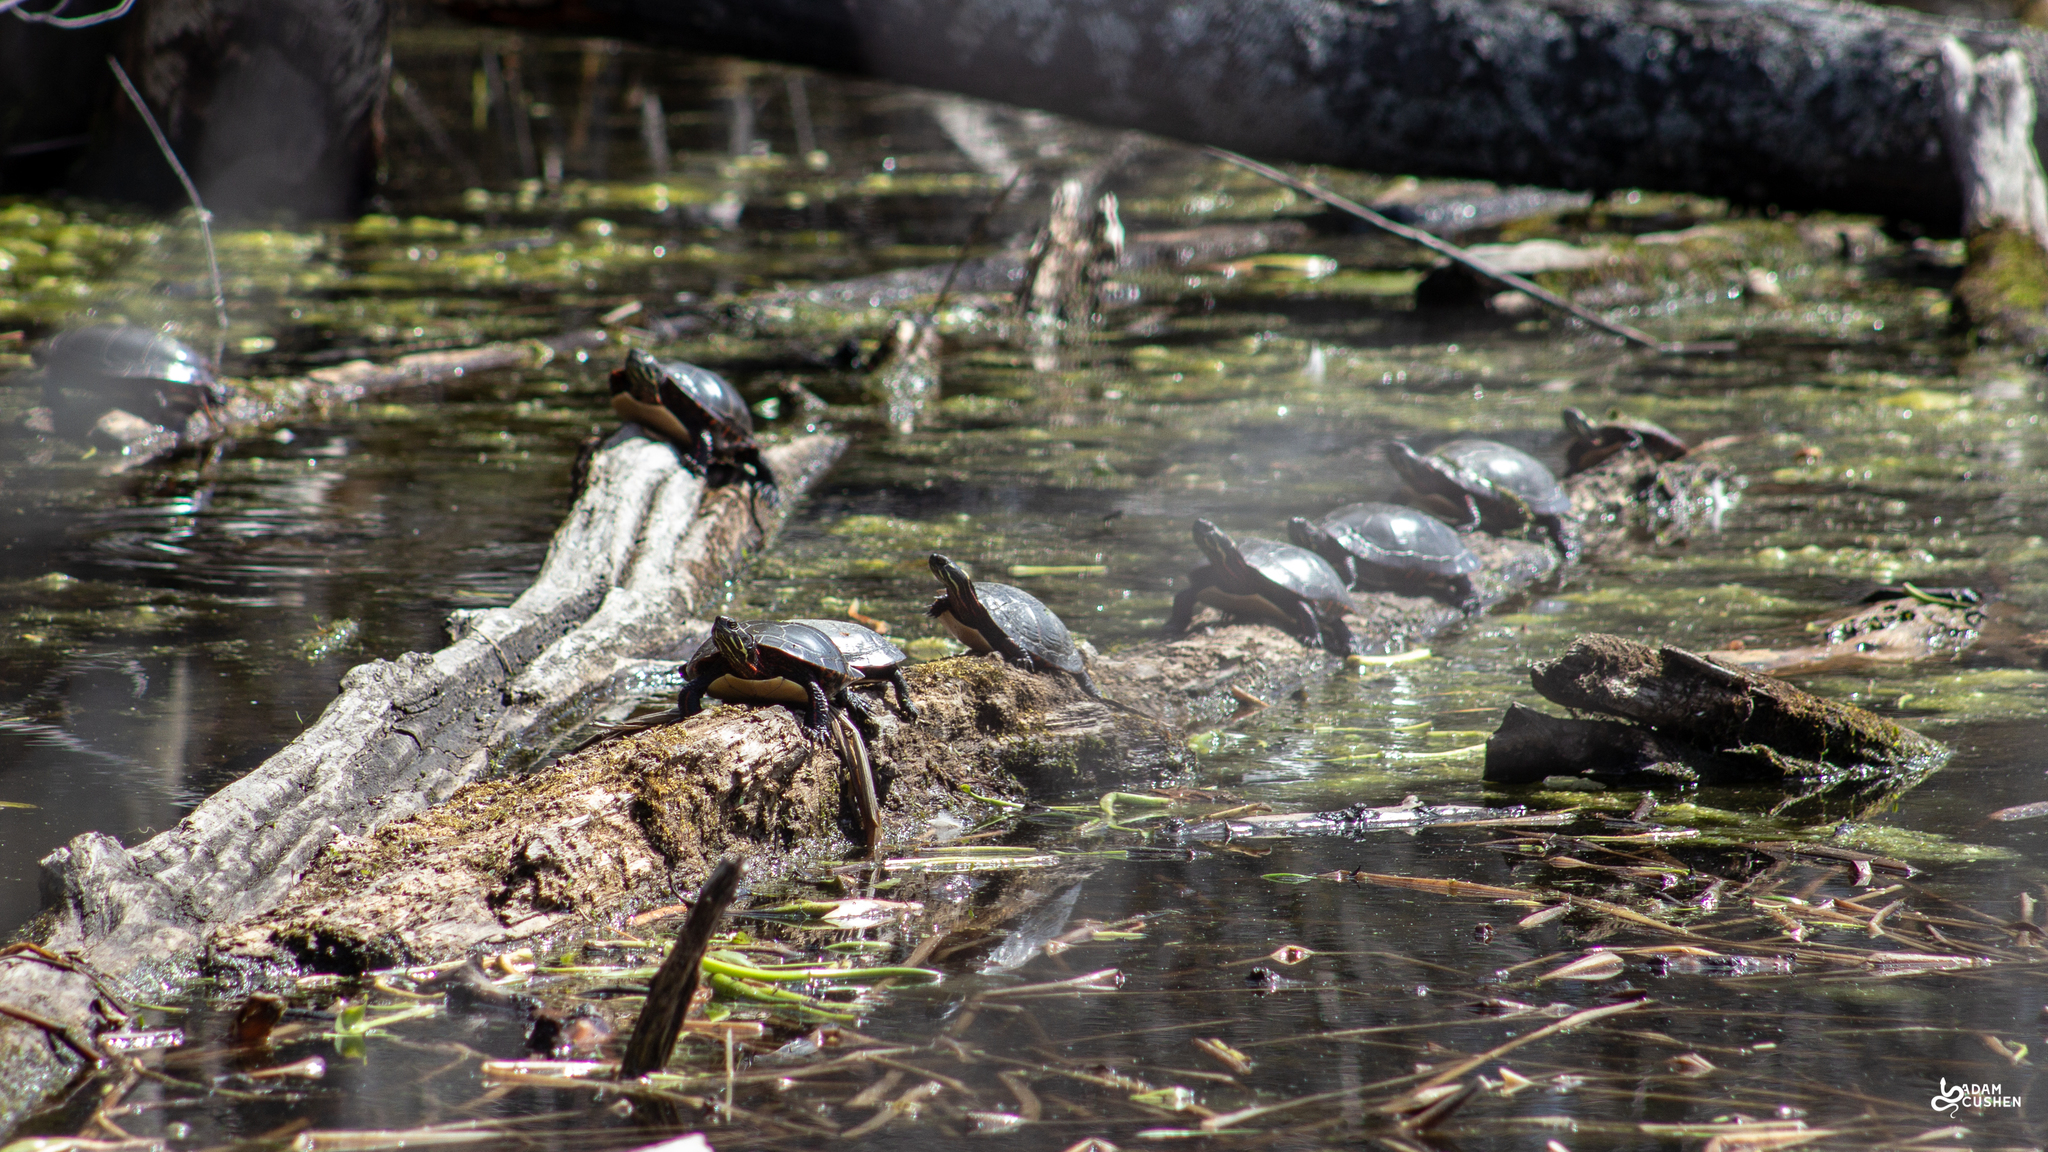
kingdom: Animalia
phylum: Chordata
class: Testudines
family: Emydidae
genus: Chrysemys
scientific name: Chrysemys picta
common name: Painted turtle
